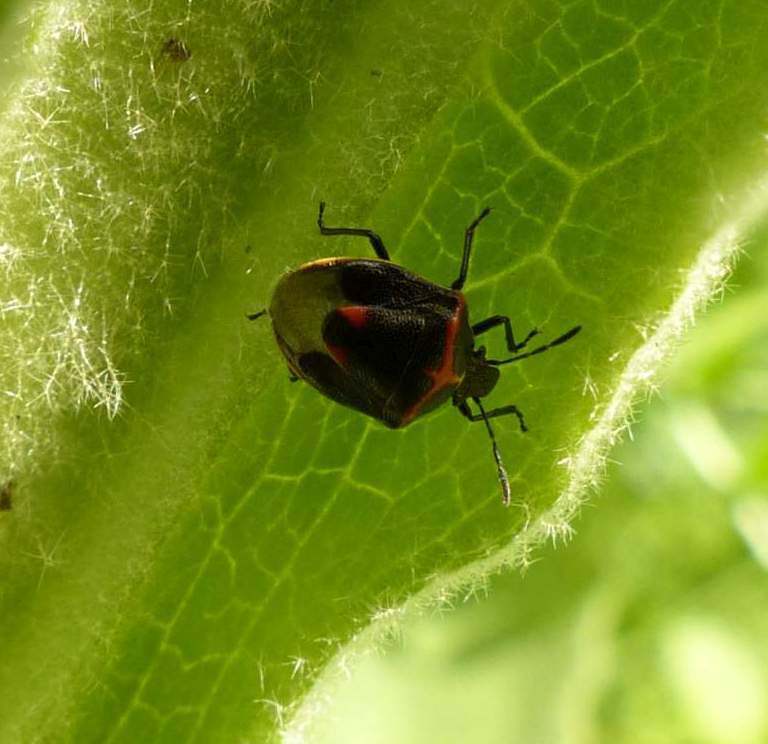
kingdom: Animalia
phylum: Arthropoda
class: Insecta
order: Hemiptera
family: Pentatomidae
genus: Cosmopepla
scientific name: Cosmopepla lintneriana
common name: Twice-stabbed stink bug
